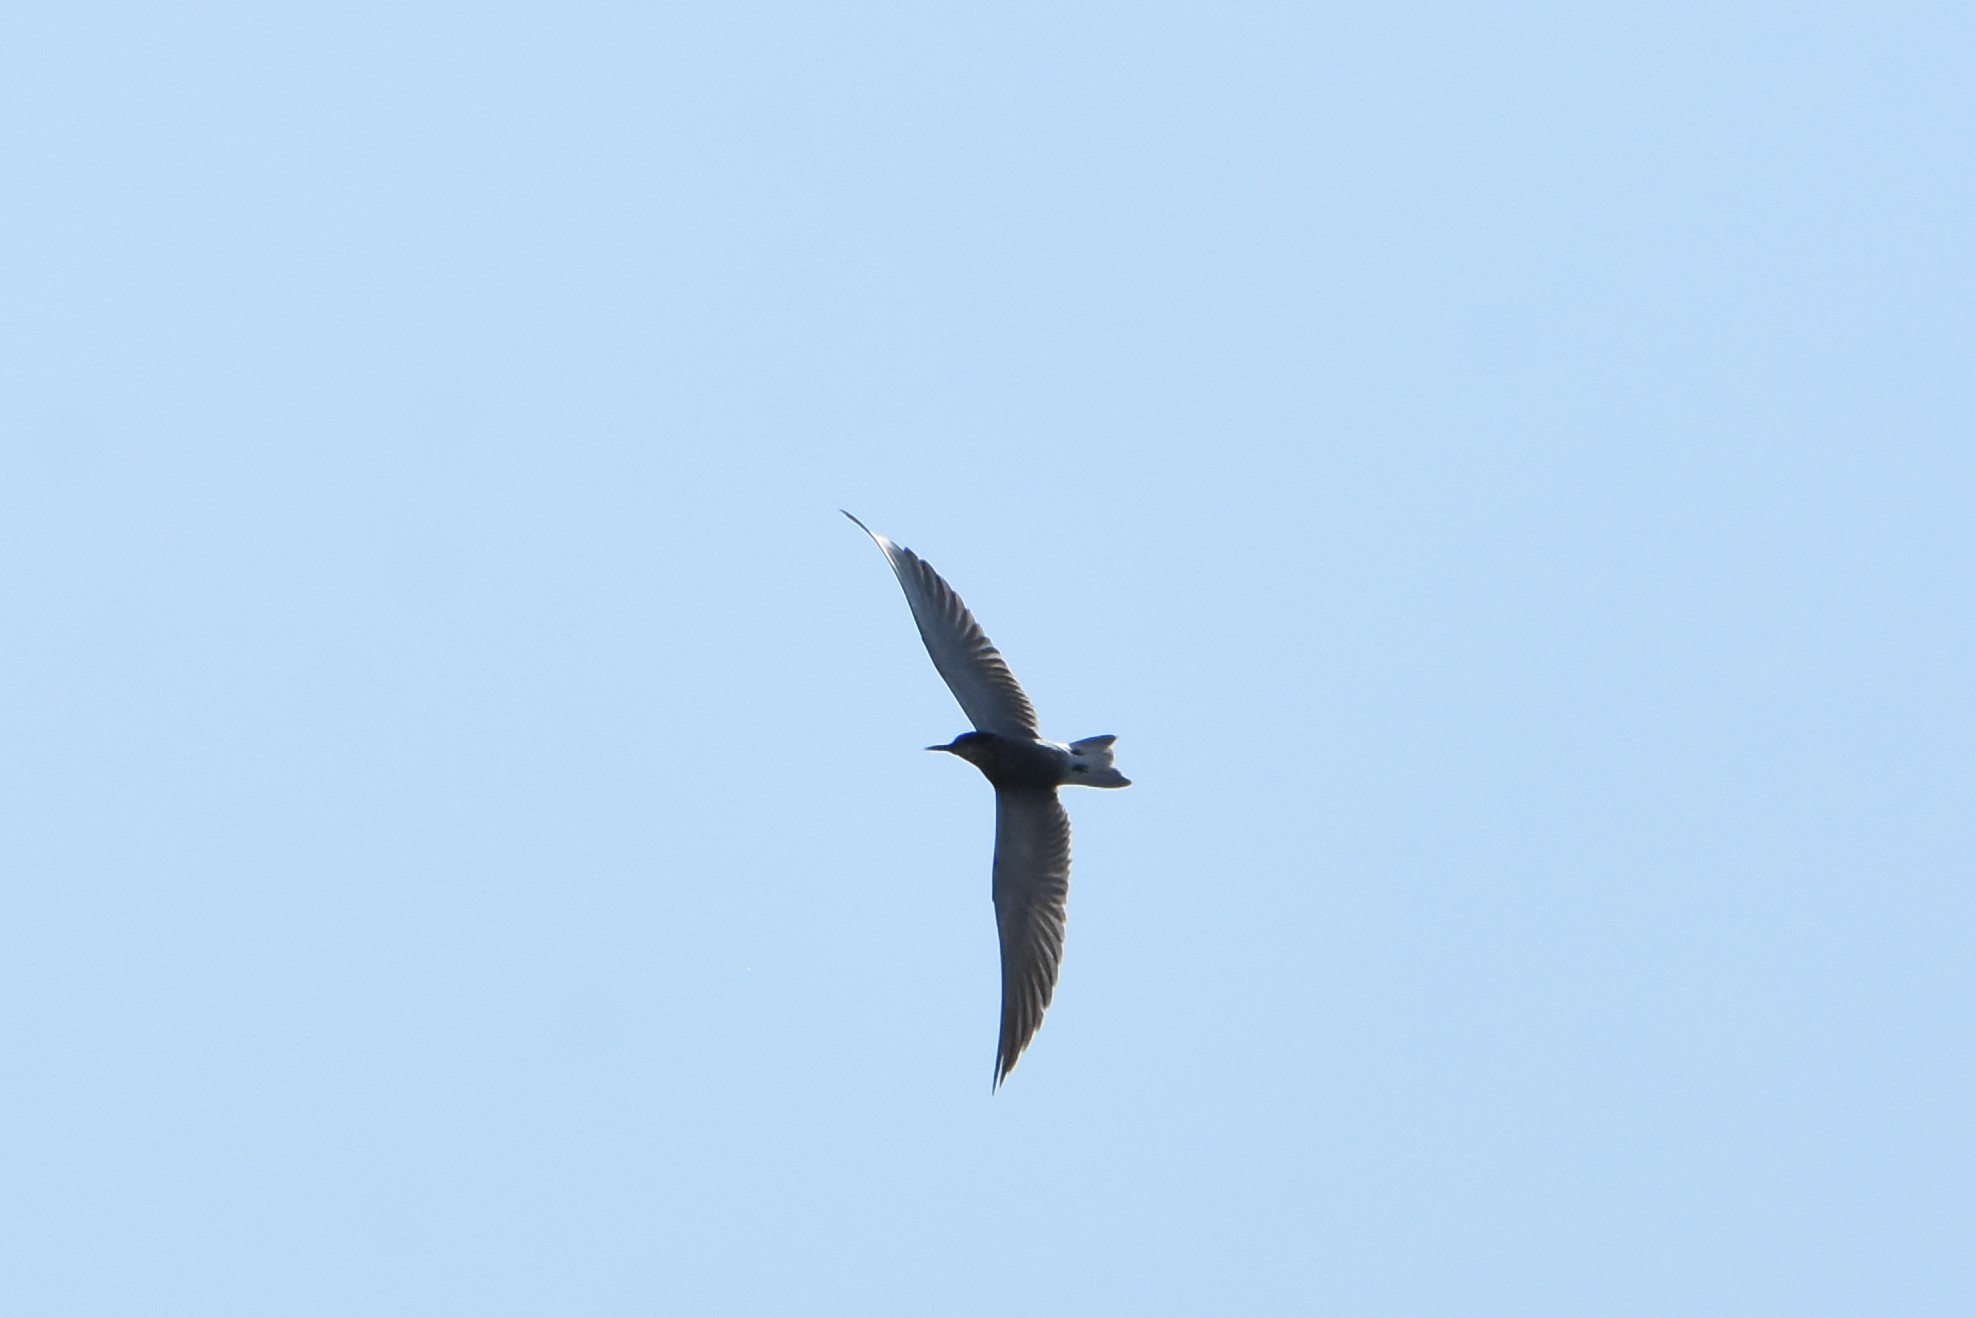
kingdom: Animalia
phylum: Chordata
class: Aves
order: Charadriiformes
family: Laridae
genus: Chlidonias
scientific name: Chlidonias niger
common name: Black tern
